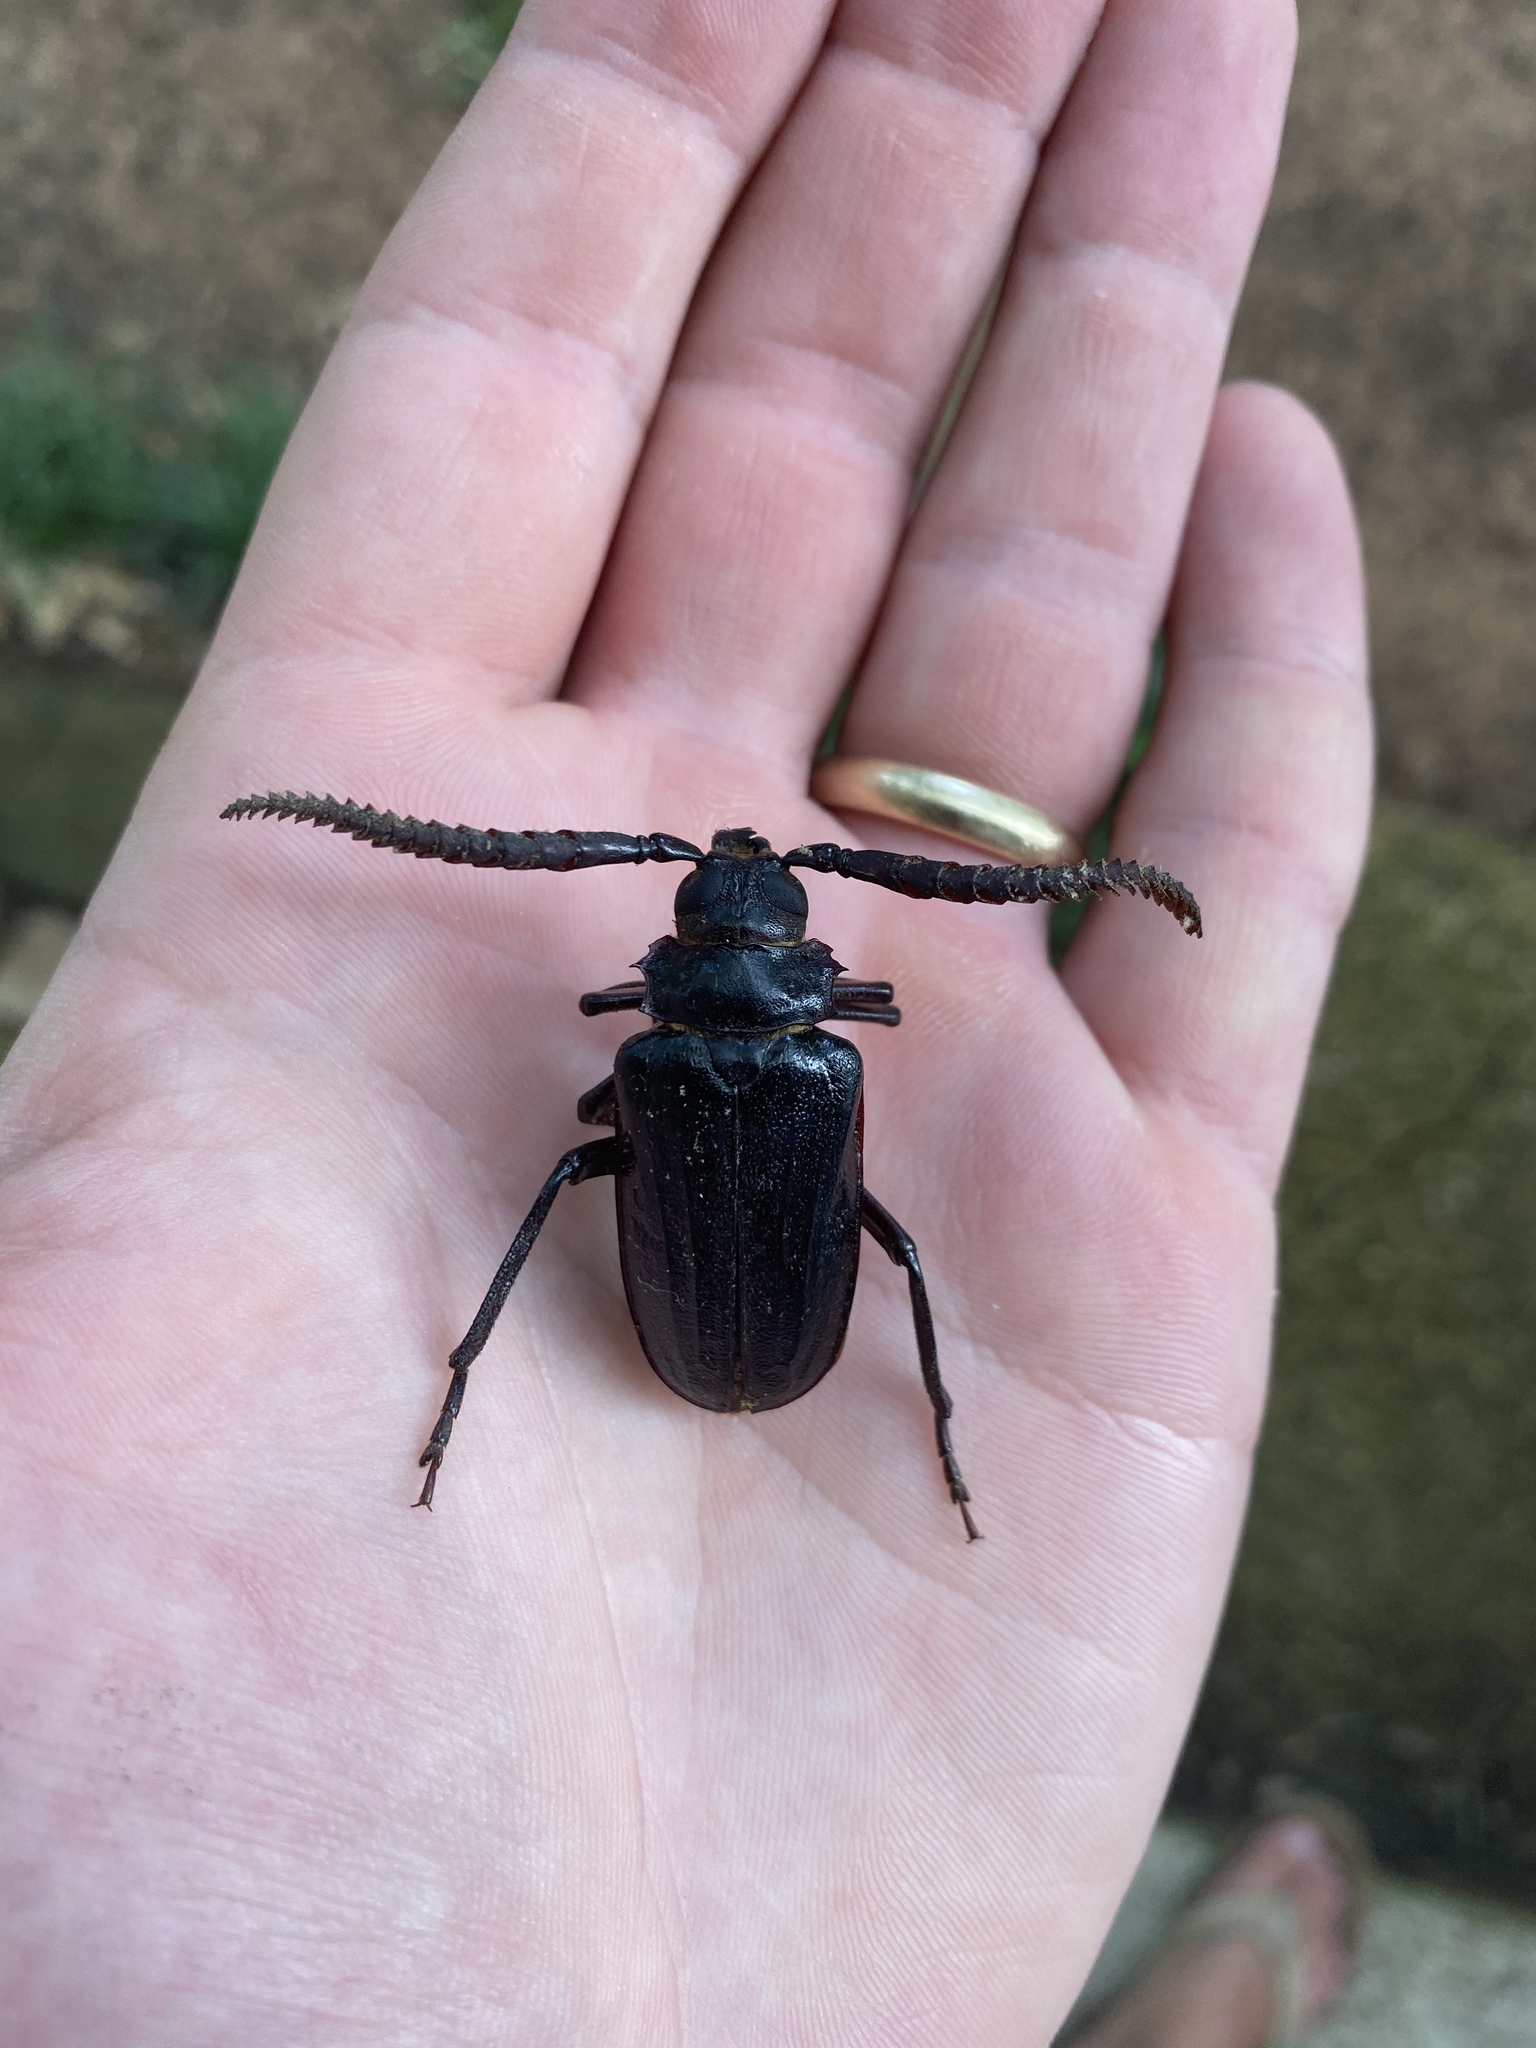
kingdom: Animalia
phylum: Arthropoda
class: Insecta
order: Coleoptera
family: Cerambycidae
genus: Prionus
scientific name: Prionus imbricornis
